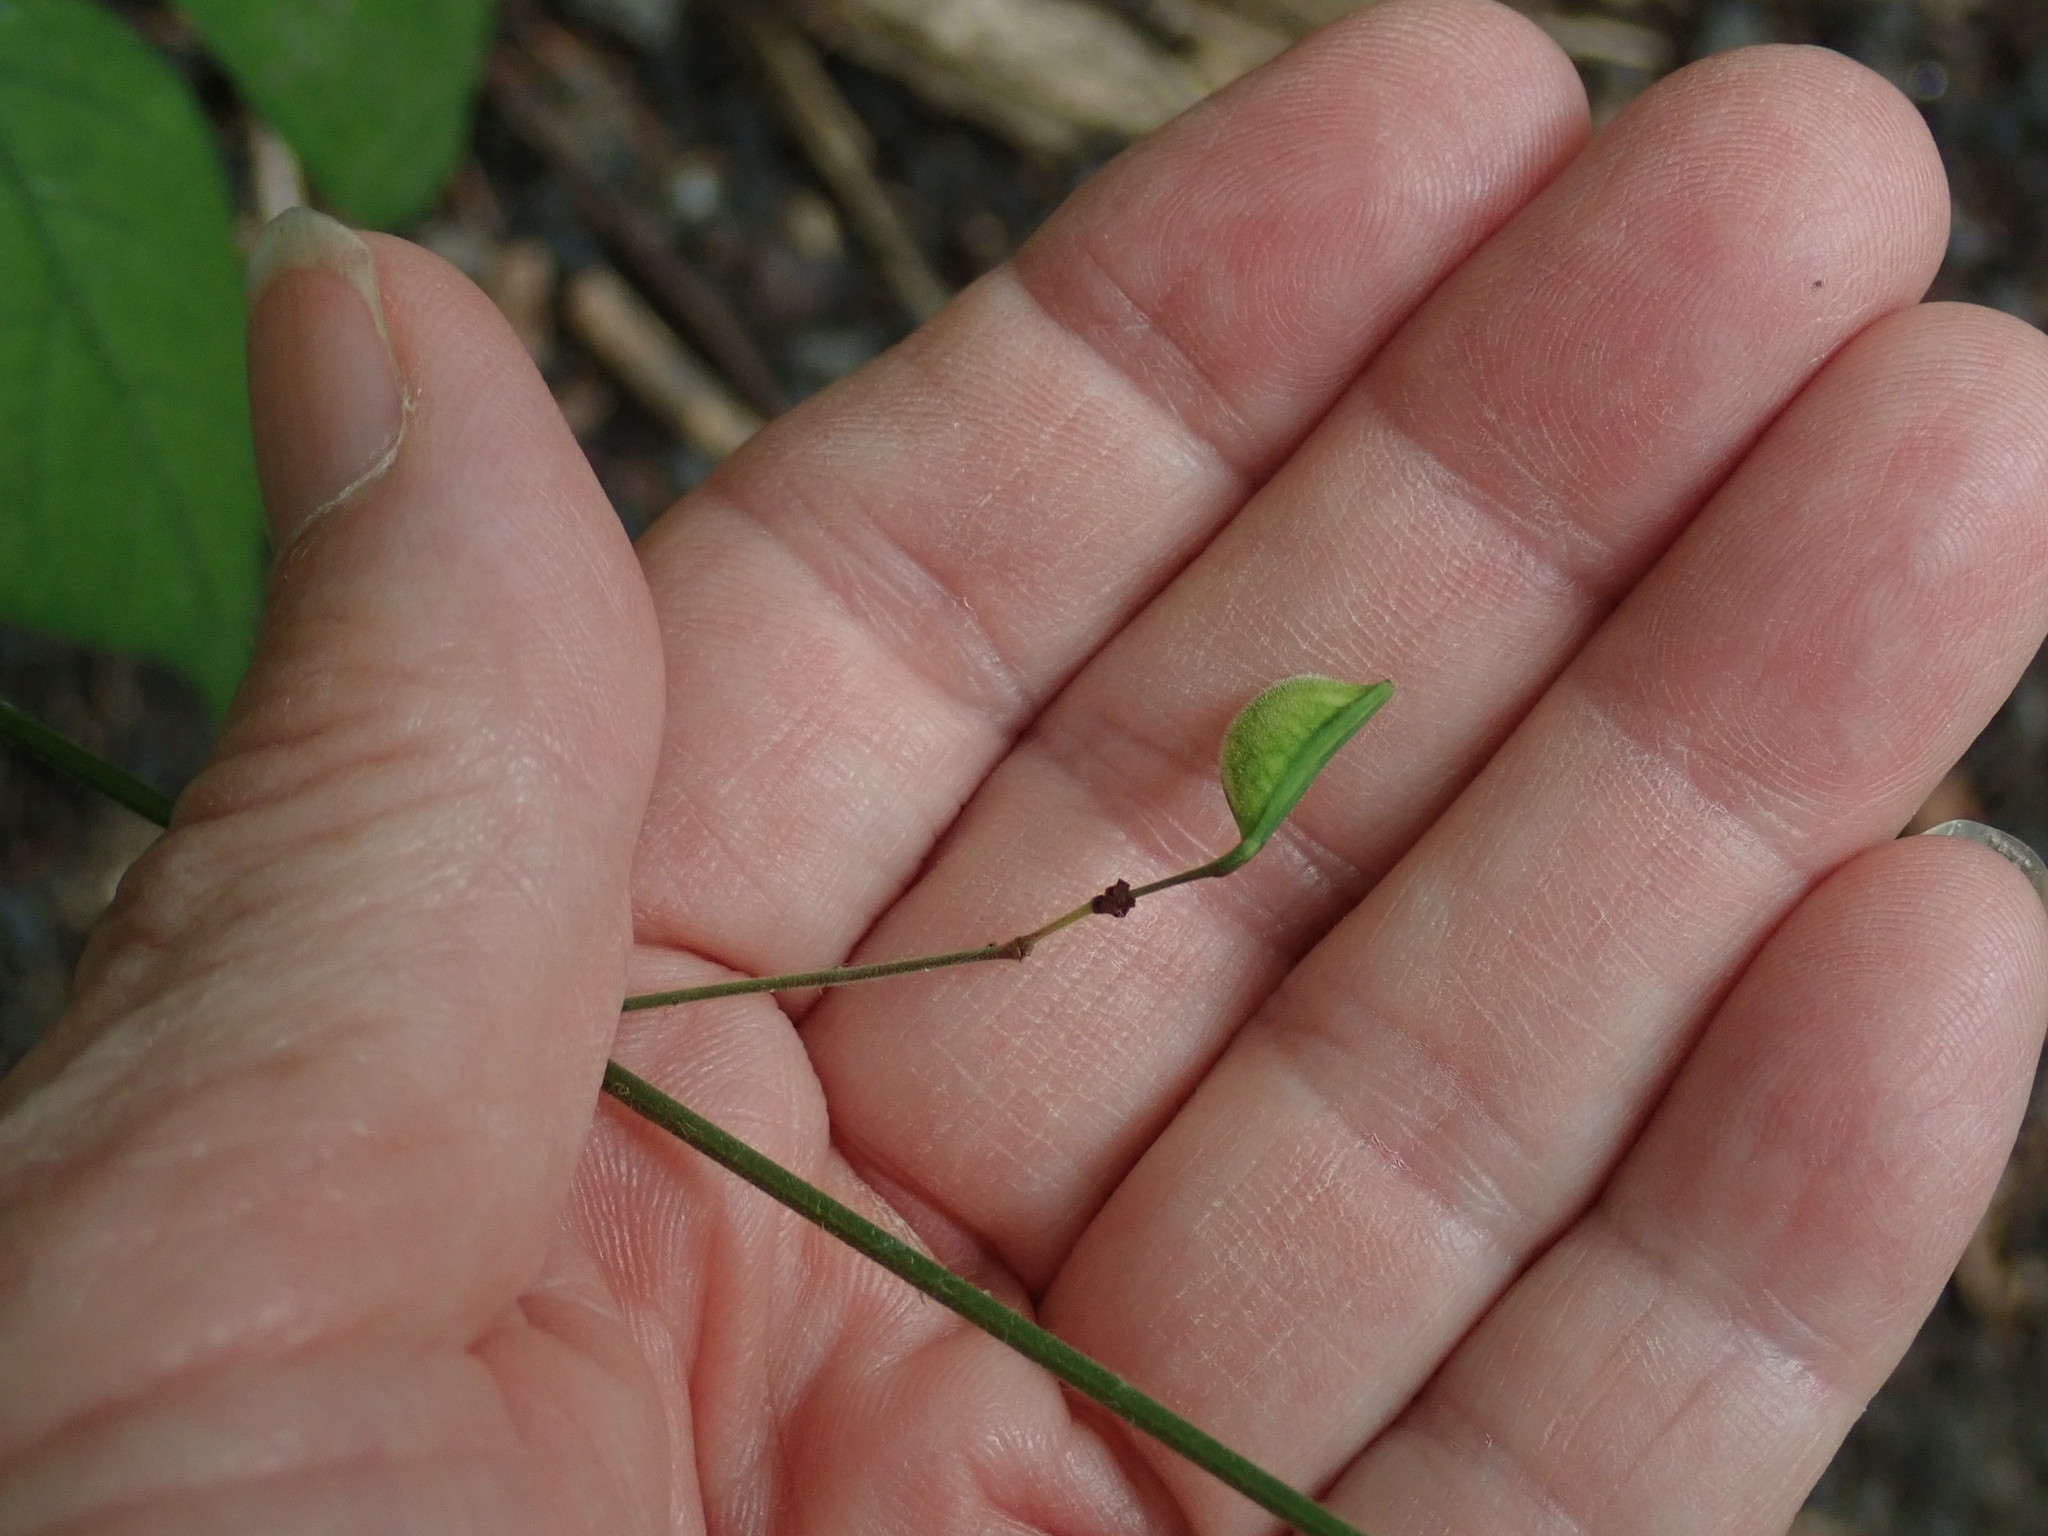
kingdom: Plantae
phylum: Tracheophyta
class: Magnoliopsida
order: Fabales
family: Fabaceae
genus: Hylodesmum
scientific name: Hylodesmum glutinosum
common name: Clustered-leaved tick-trefoil
